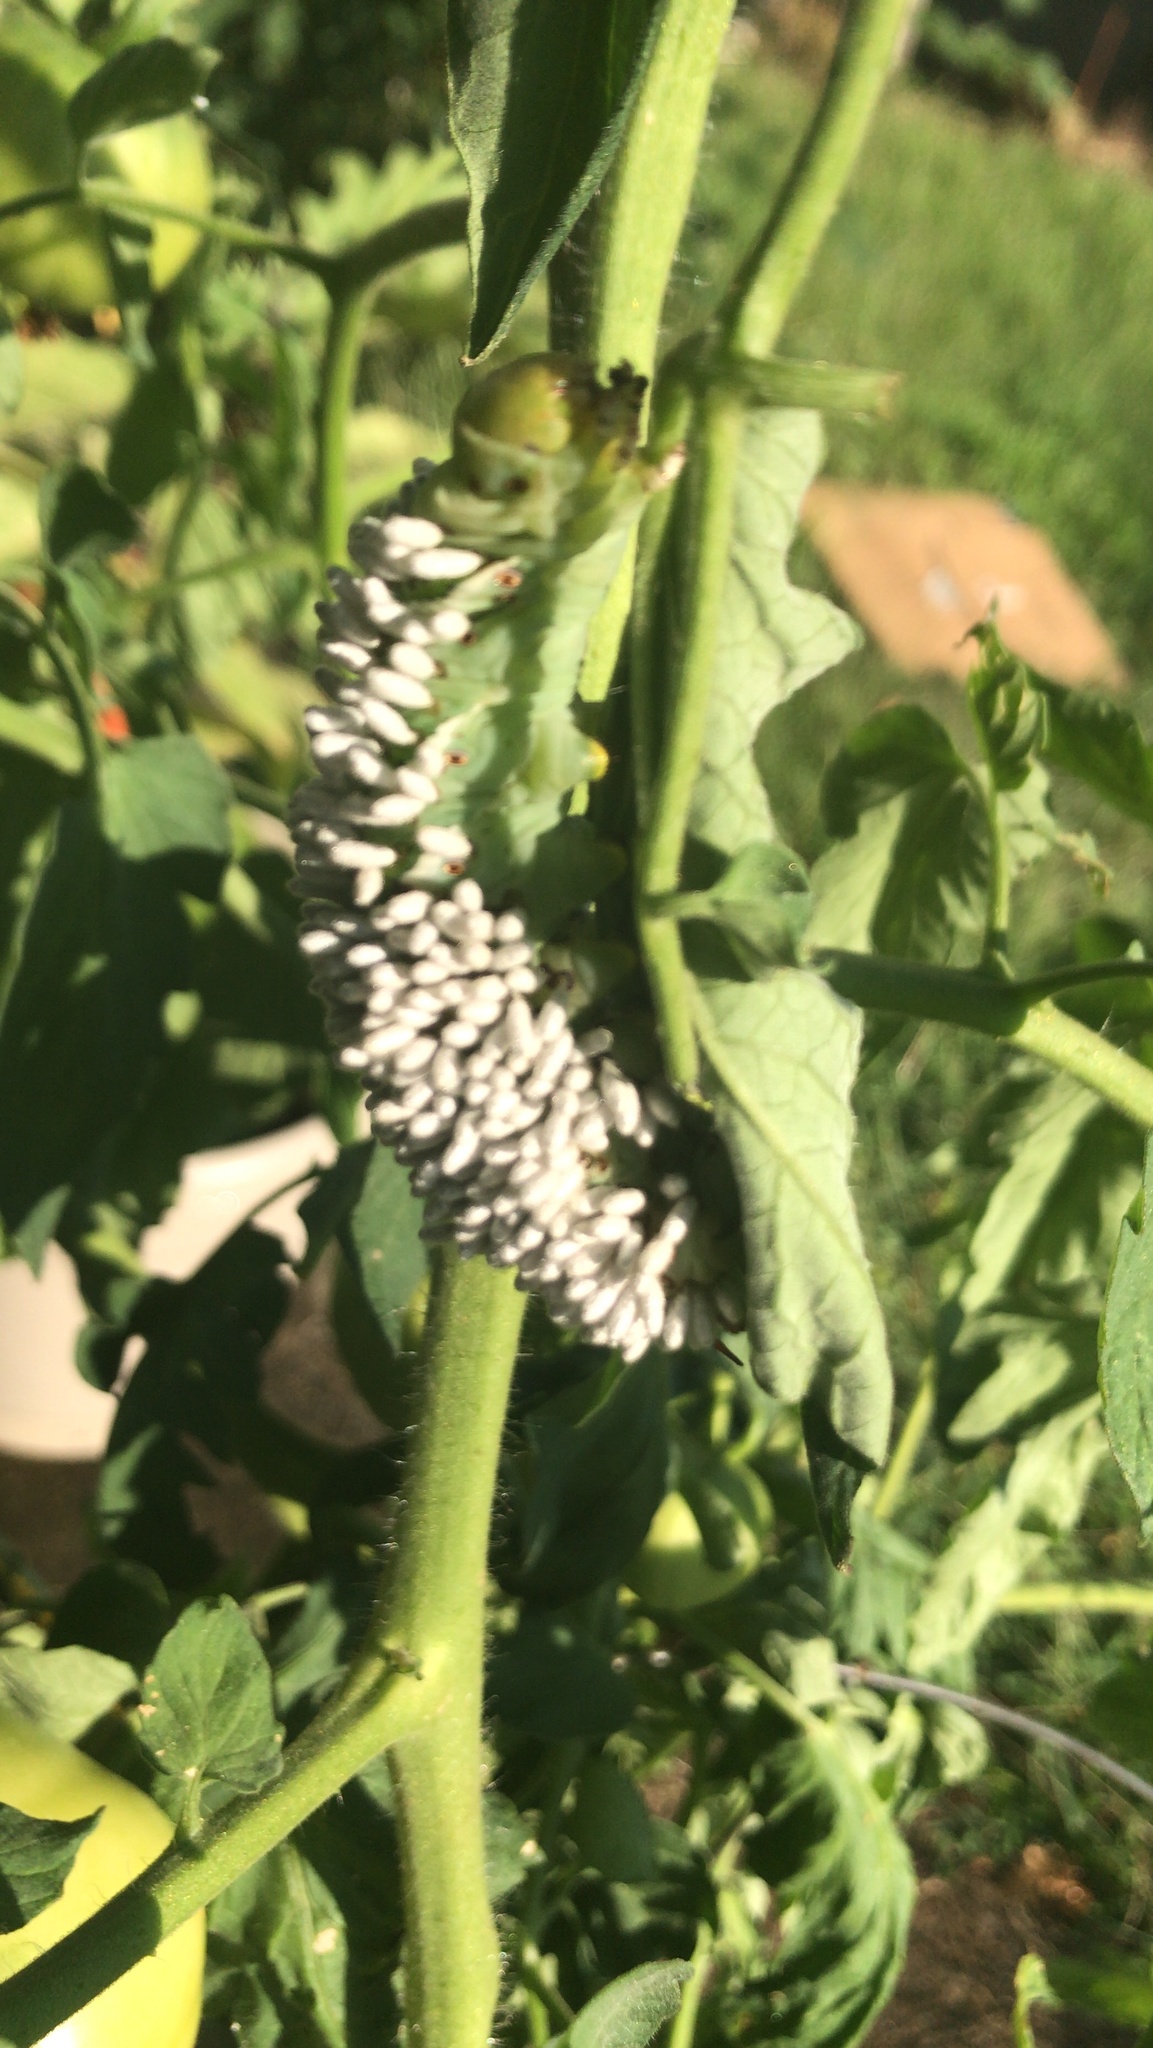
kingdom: Animalia
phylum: Arthropoda
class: Insecta
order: Hymenoptera
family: Braconidae
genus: Cotesia
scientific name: Cotesia congregata
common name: Hornworm parasitoid wasp
